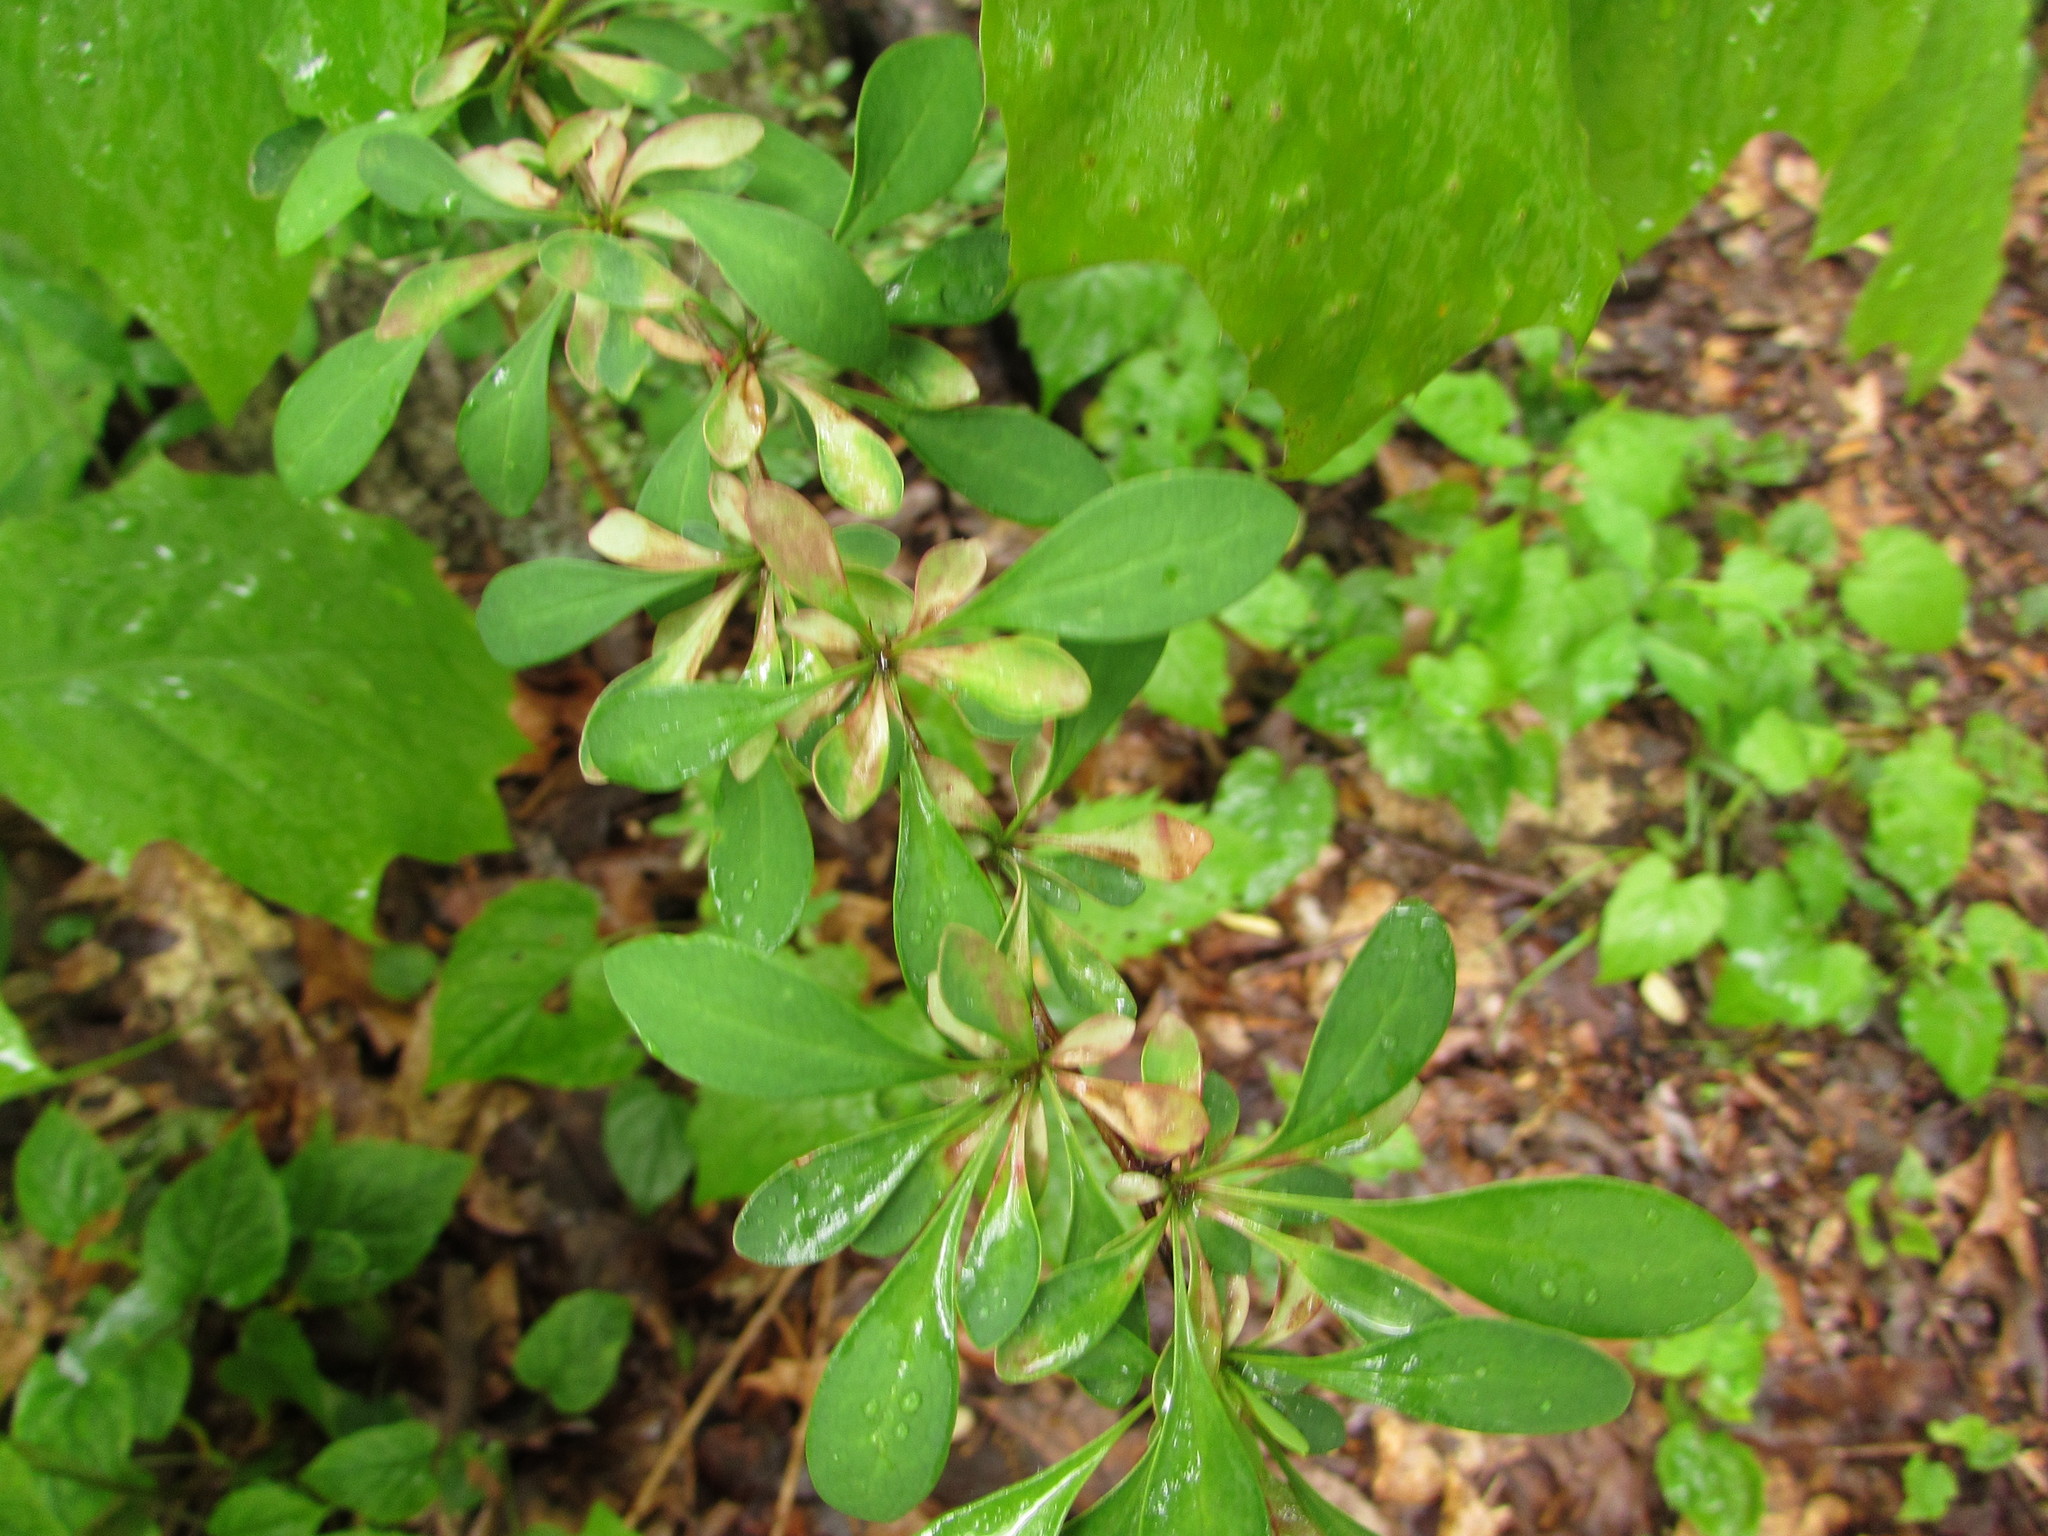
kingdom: Plantae
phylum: Tracheophyta
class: Magnoliopsida
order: Ranunculales
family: Berberidaceae
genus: Berberis
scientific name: Berberis thunbergii
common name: Japanese barberry
